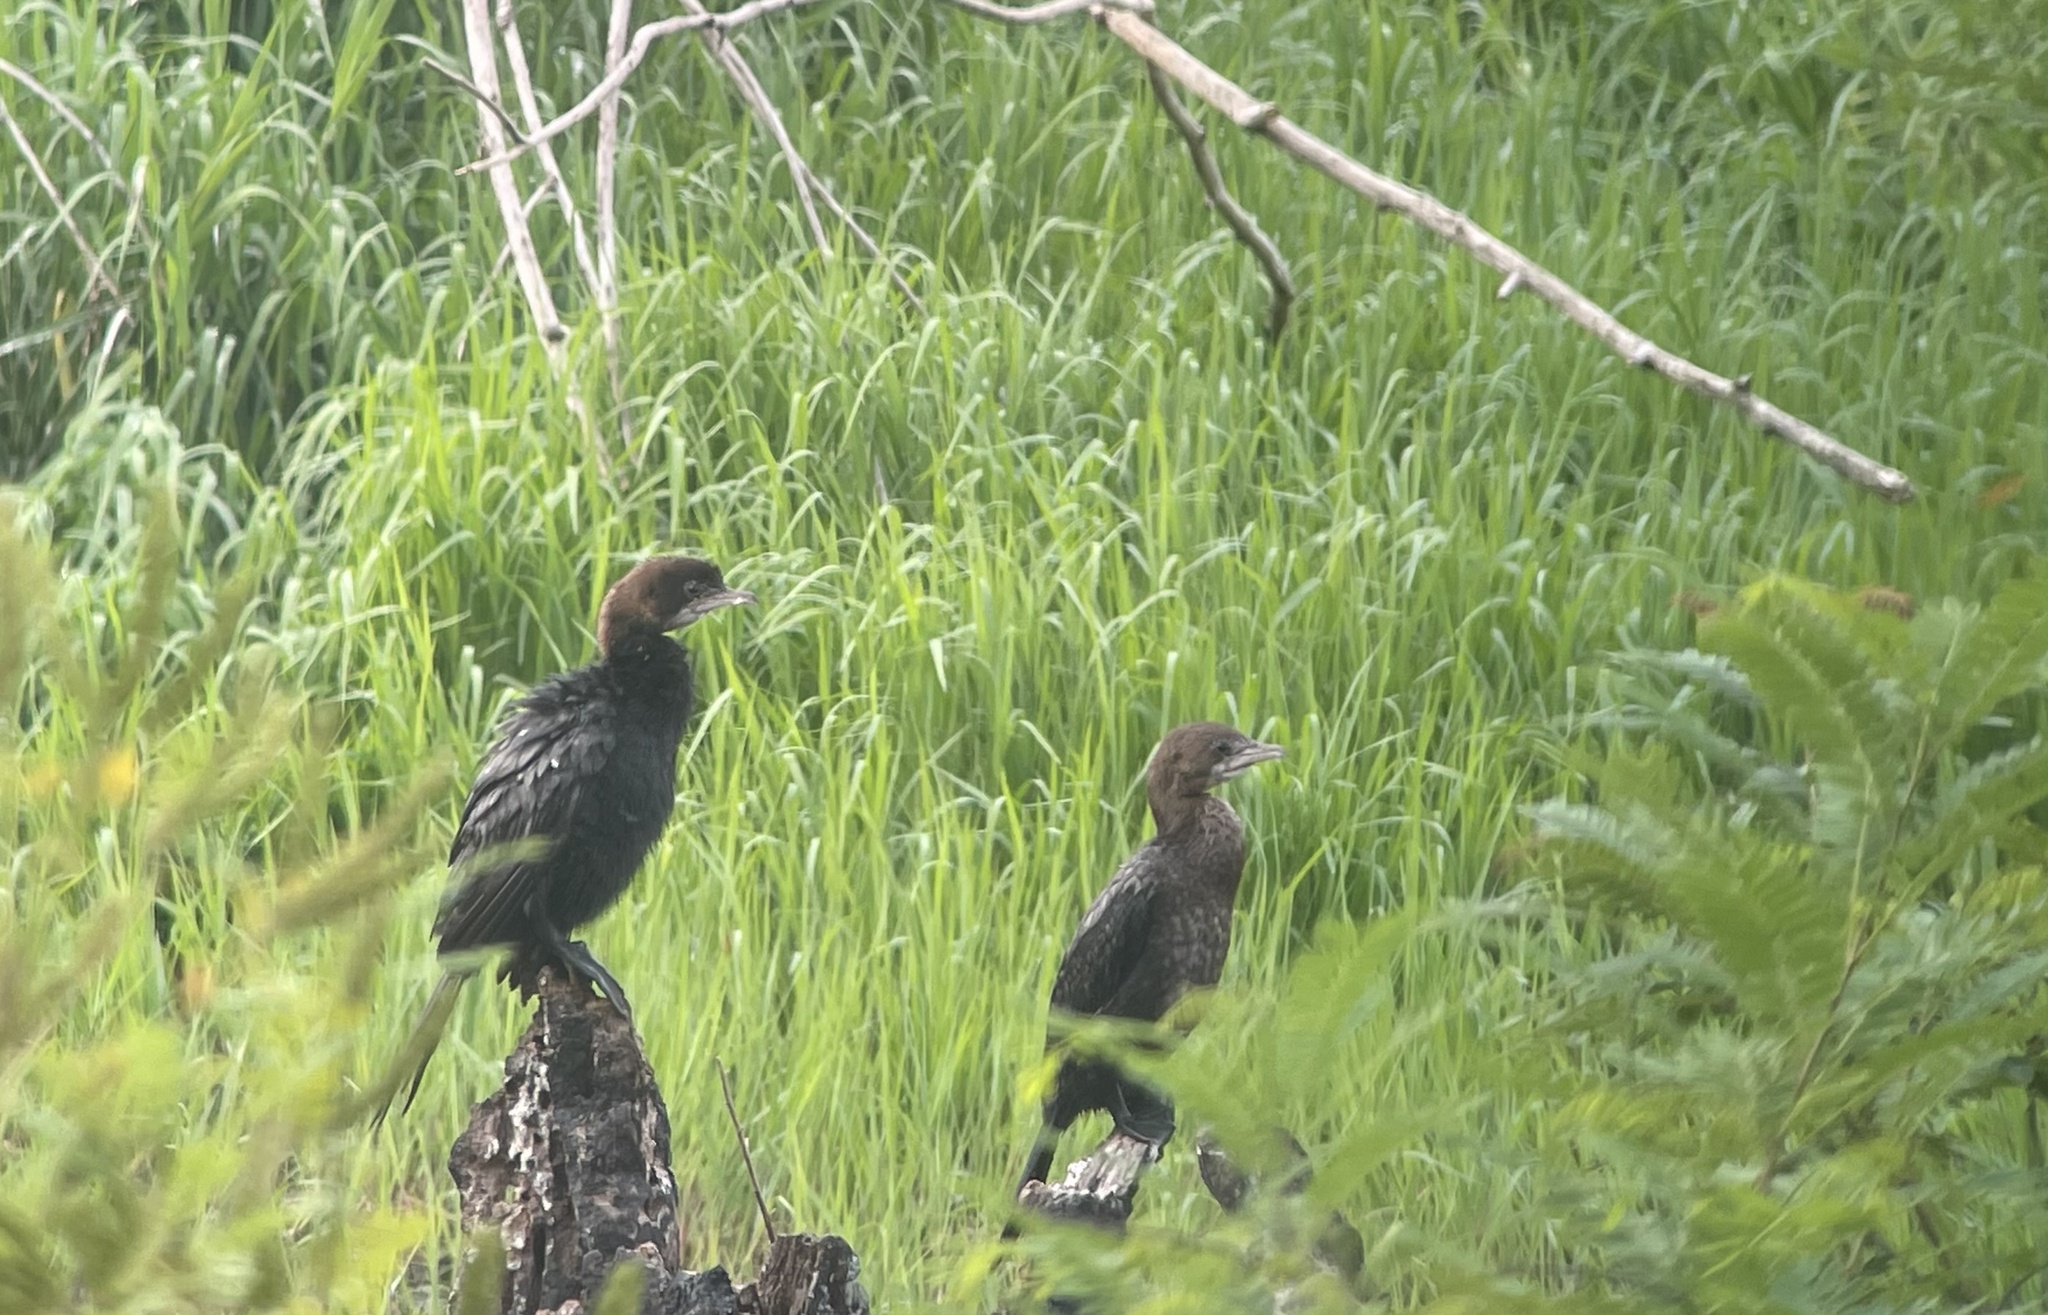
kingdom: Animalia
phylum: Chordata
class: Aves
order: Suliformes
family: Phalacrocoracidae
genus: Microcarbo
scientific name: Microcarbo pygmaeus
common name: Pygmy cormorant
